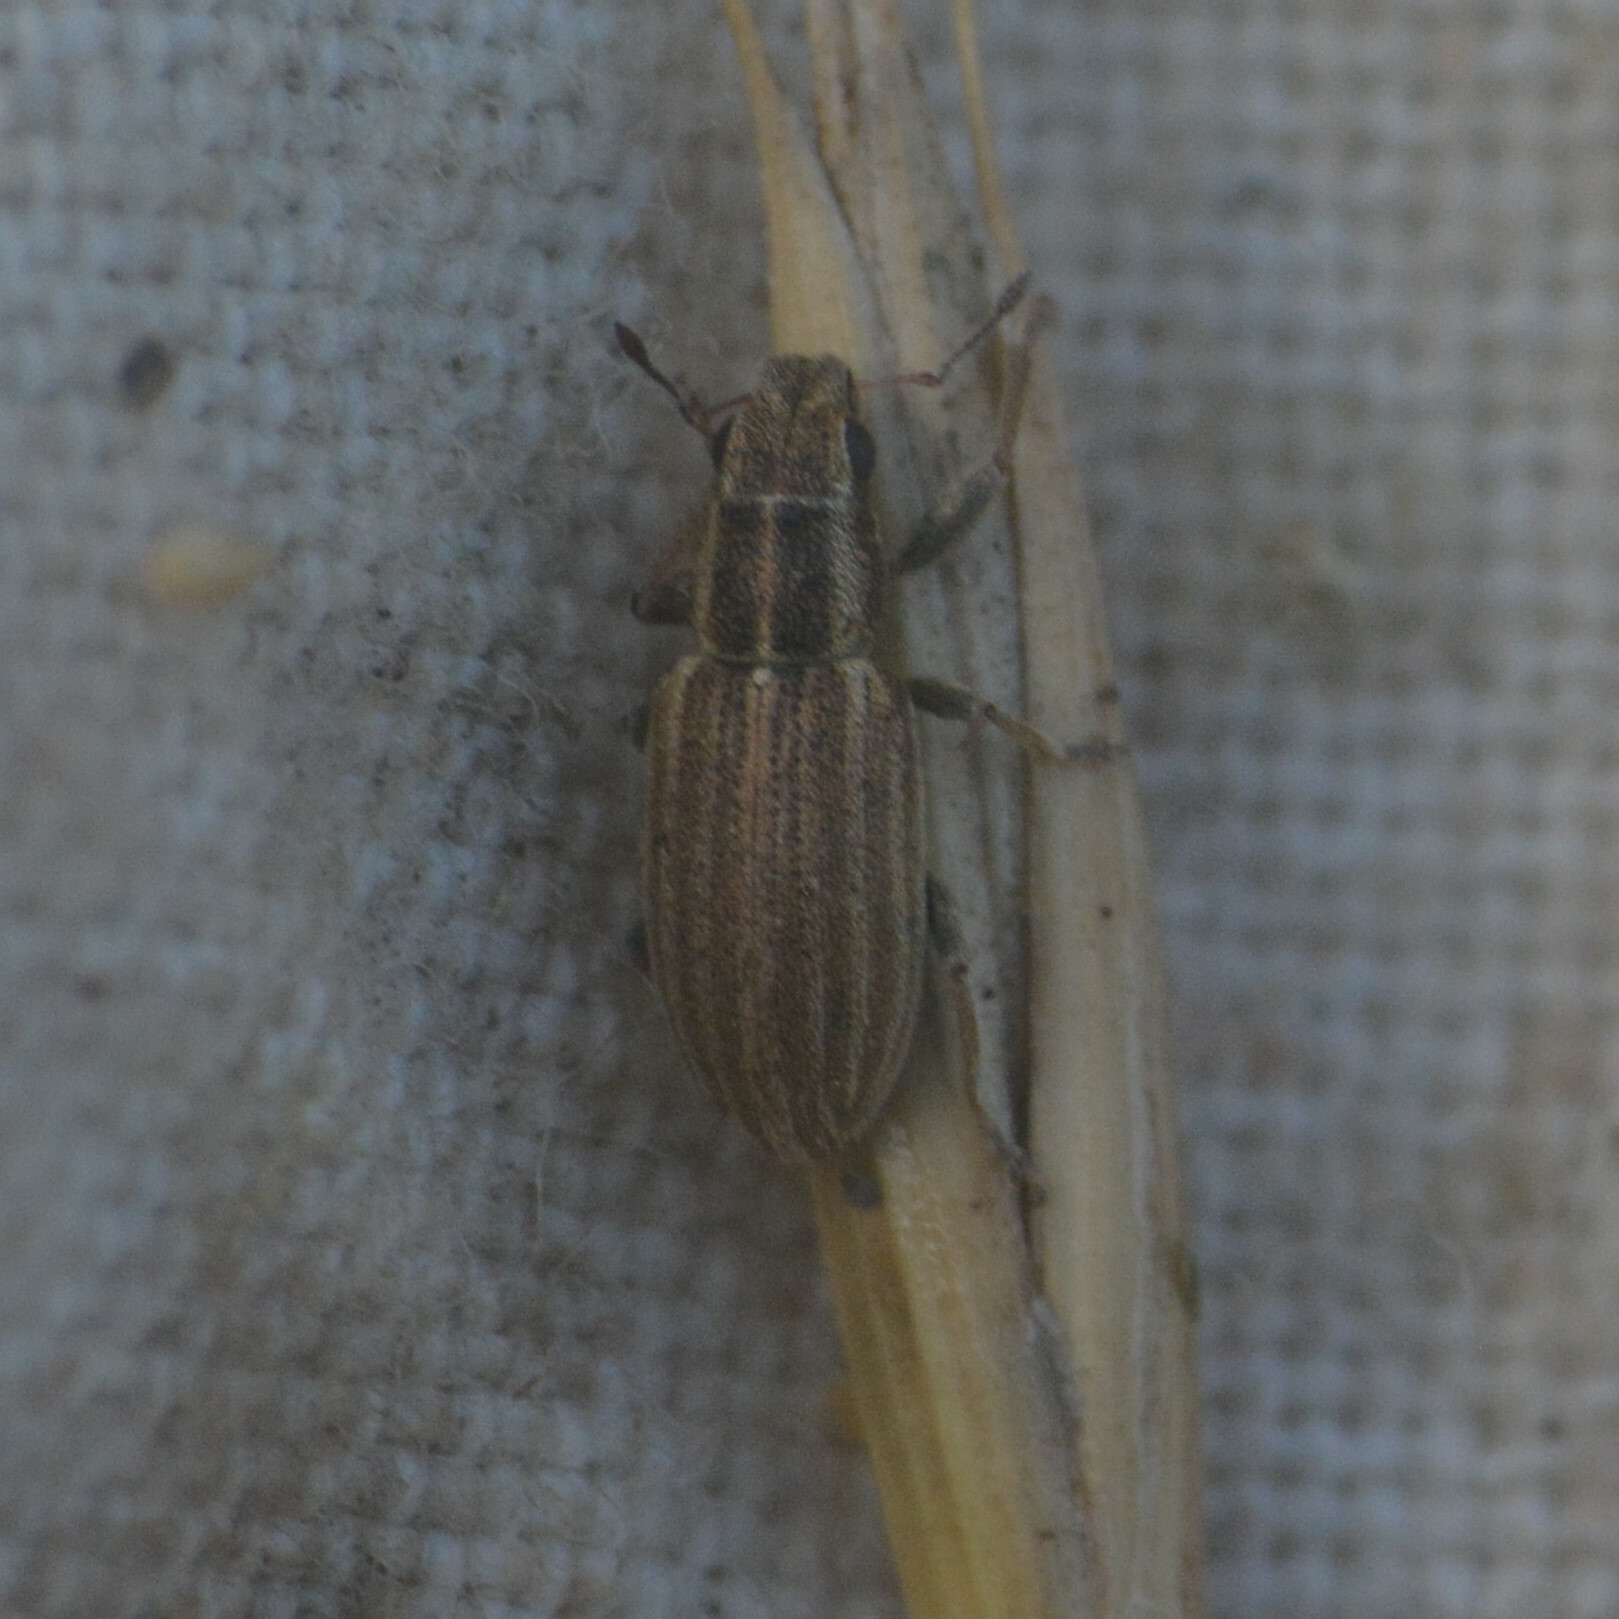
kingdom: Animalia
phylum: Arthropoda
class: Insecta
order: Coleoptera
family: Curculionidae
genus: Sitona
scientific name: Sitona lineatus
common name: Weevil
